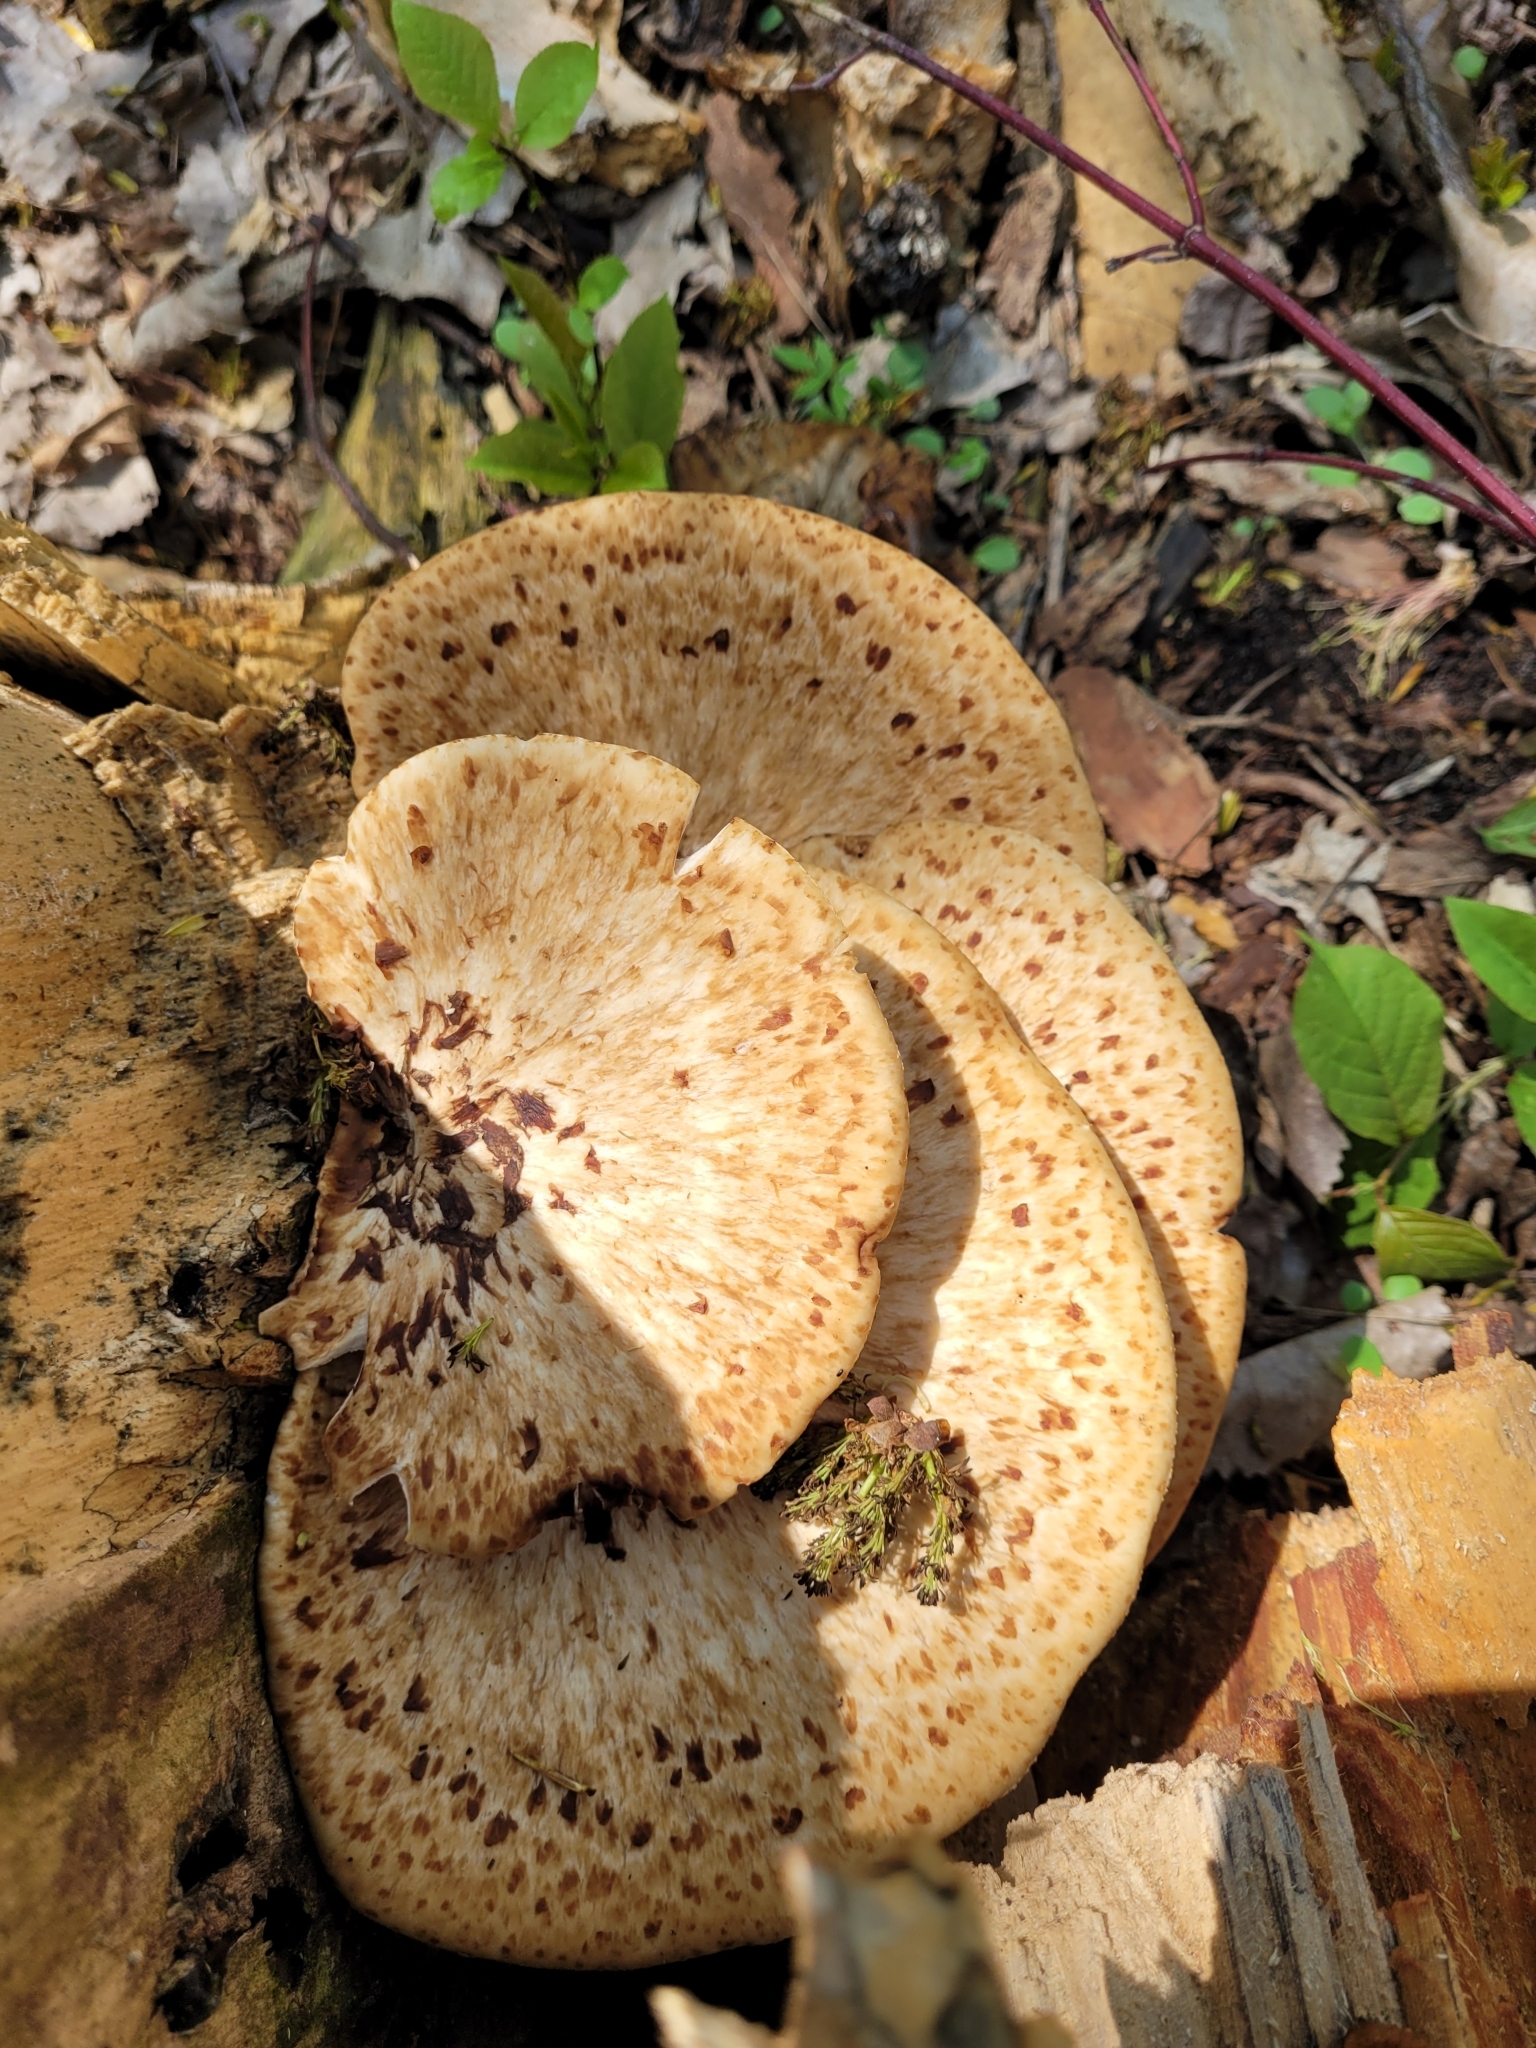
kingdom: Fungi
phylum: Basidiomycota
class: Agaricomycetes
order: Polyporales
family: Polyporaceae
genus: Cerioporus
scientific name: Cerioporus squamosus
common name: Dryad's saddle
